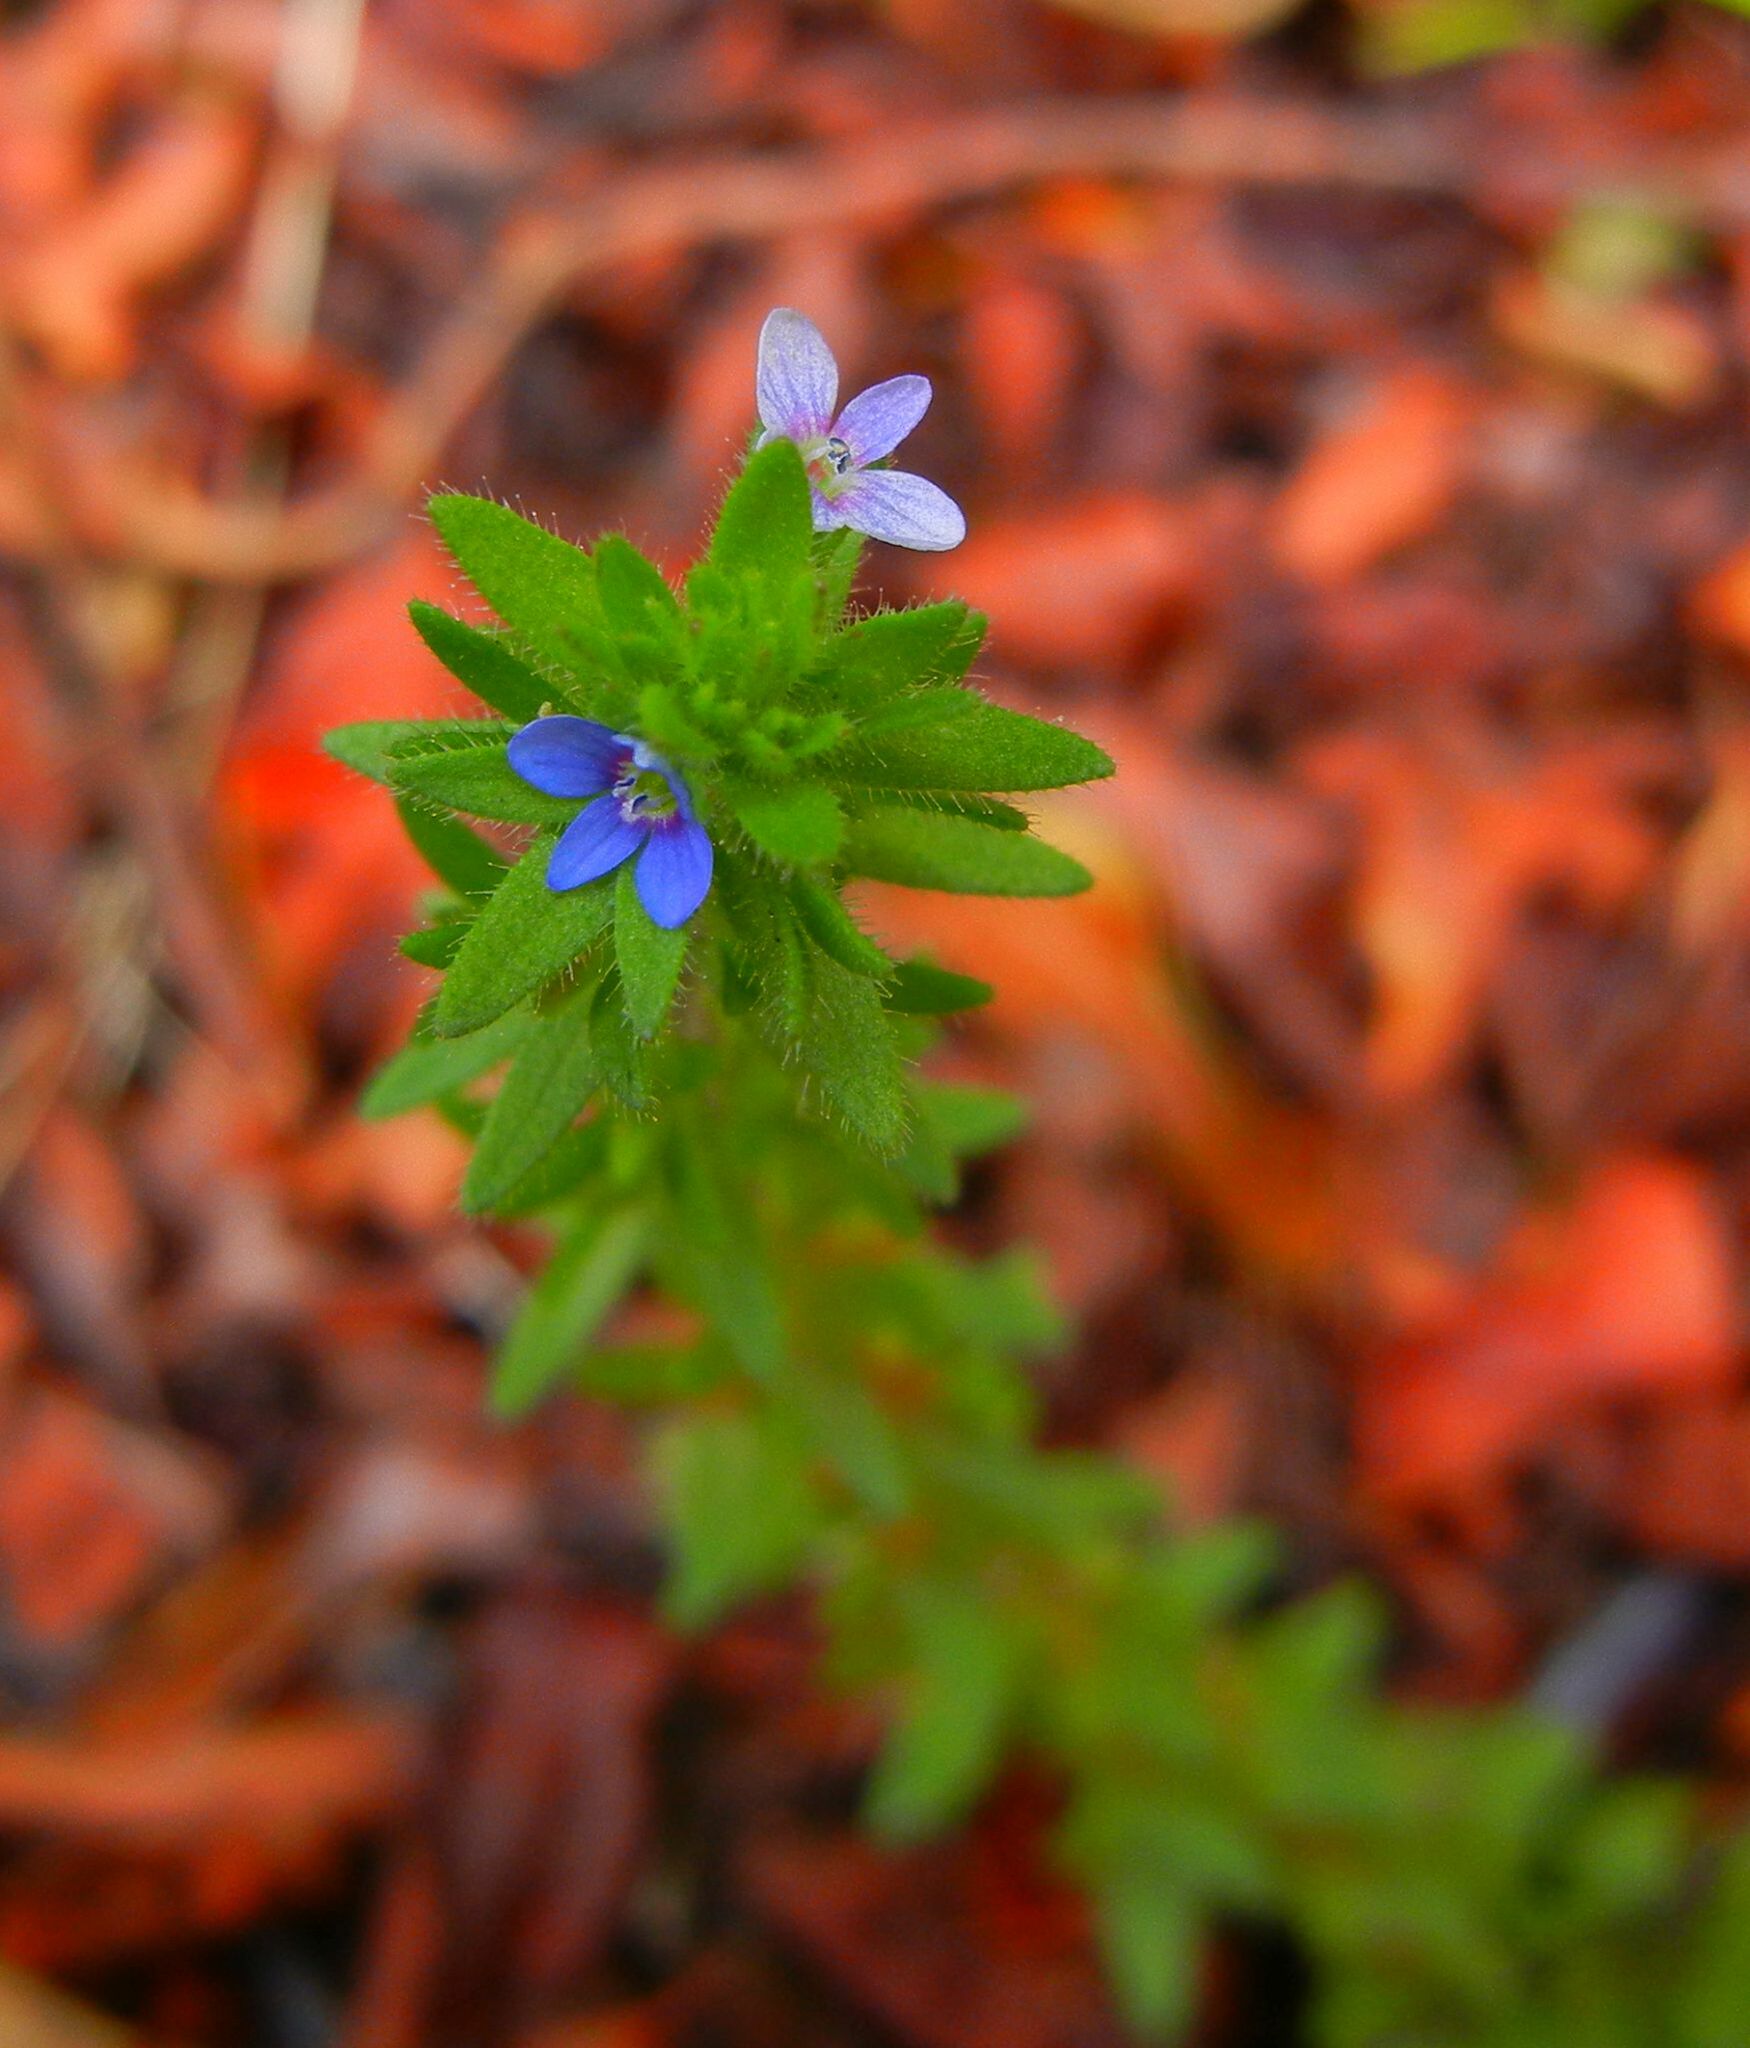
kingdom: Plantae
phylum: Tracheophyta
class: Magnoliopsida
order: Lamiales
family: Plantaginaceae
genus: Veronica
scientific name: Veronica arvensis
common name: Corn speedwell
